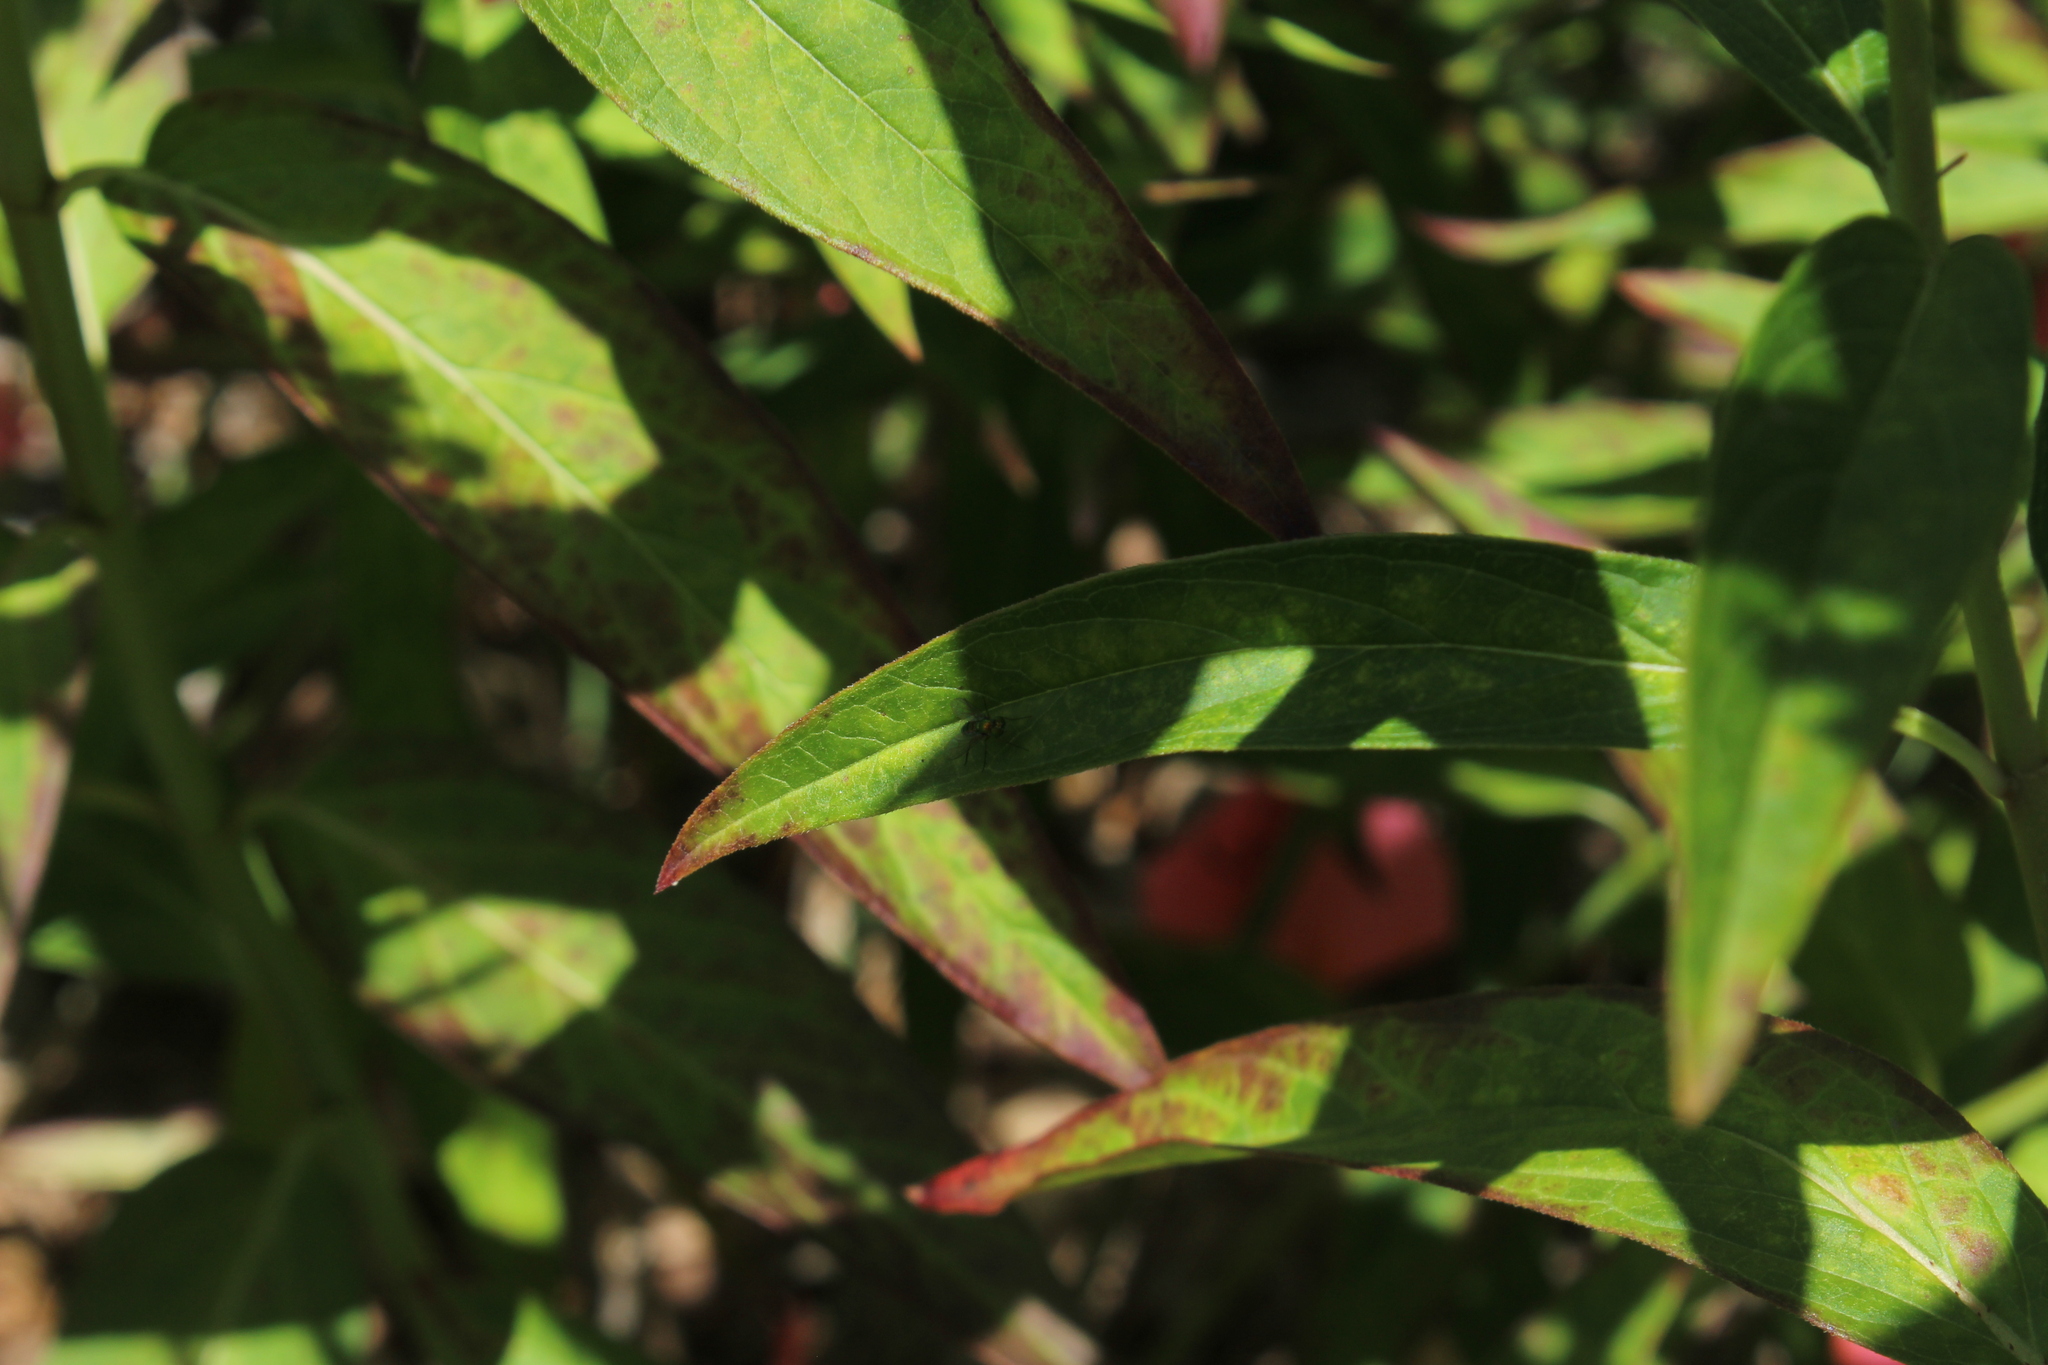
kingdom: Animalia
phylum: Arthropoda
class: Insecta
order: Diptera
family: Dolichopodidae
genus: Condylostylus
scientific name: Condylostylus
